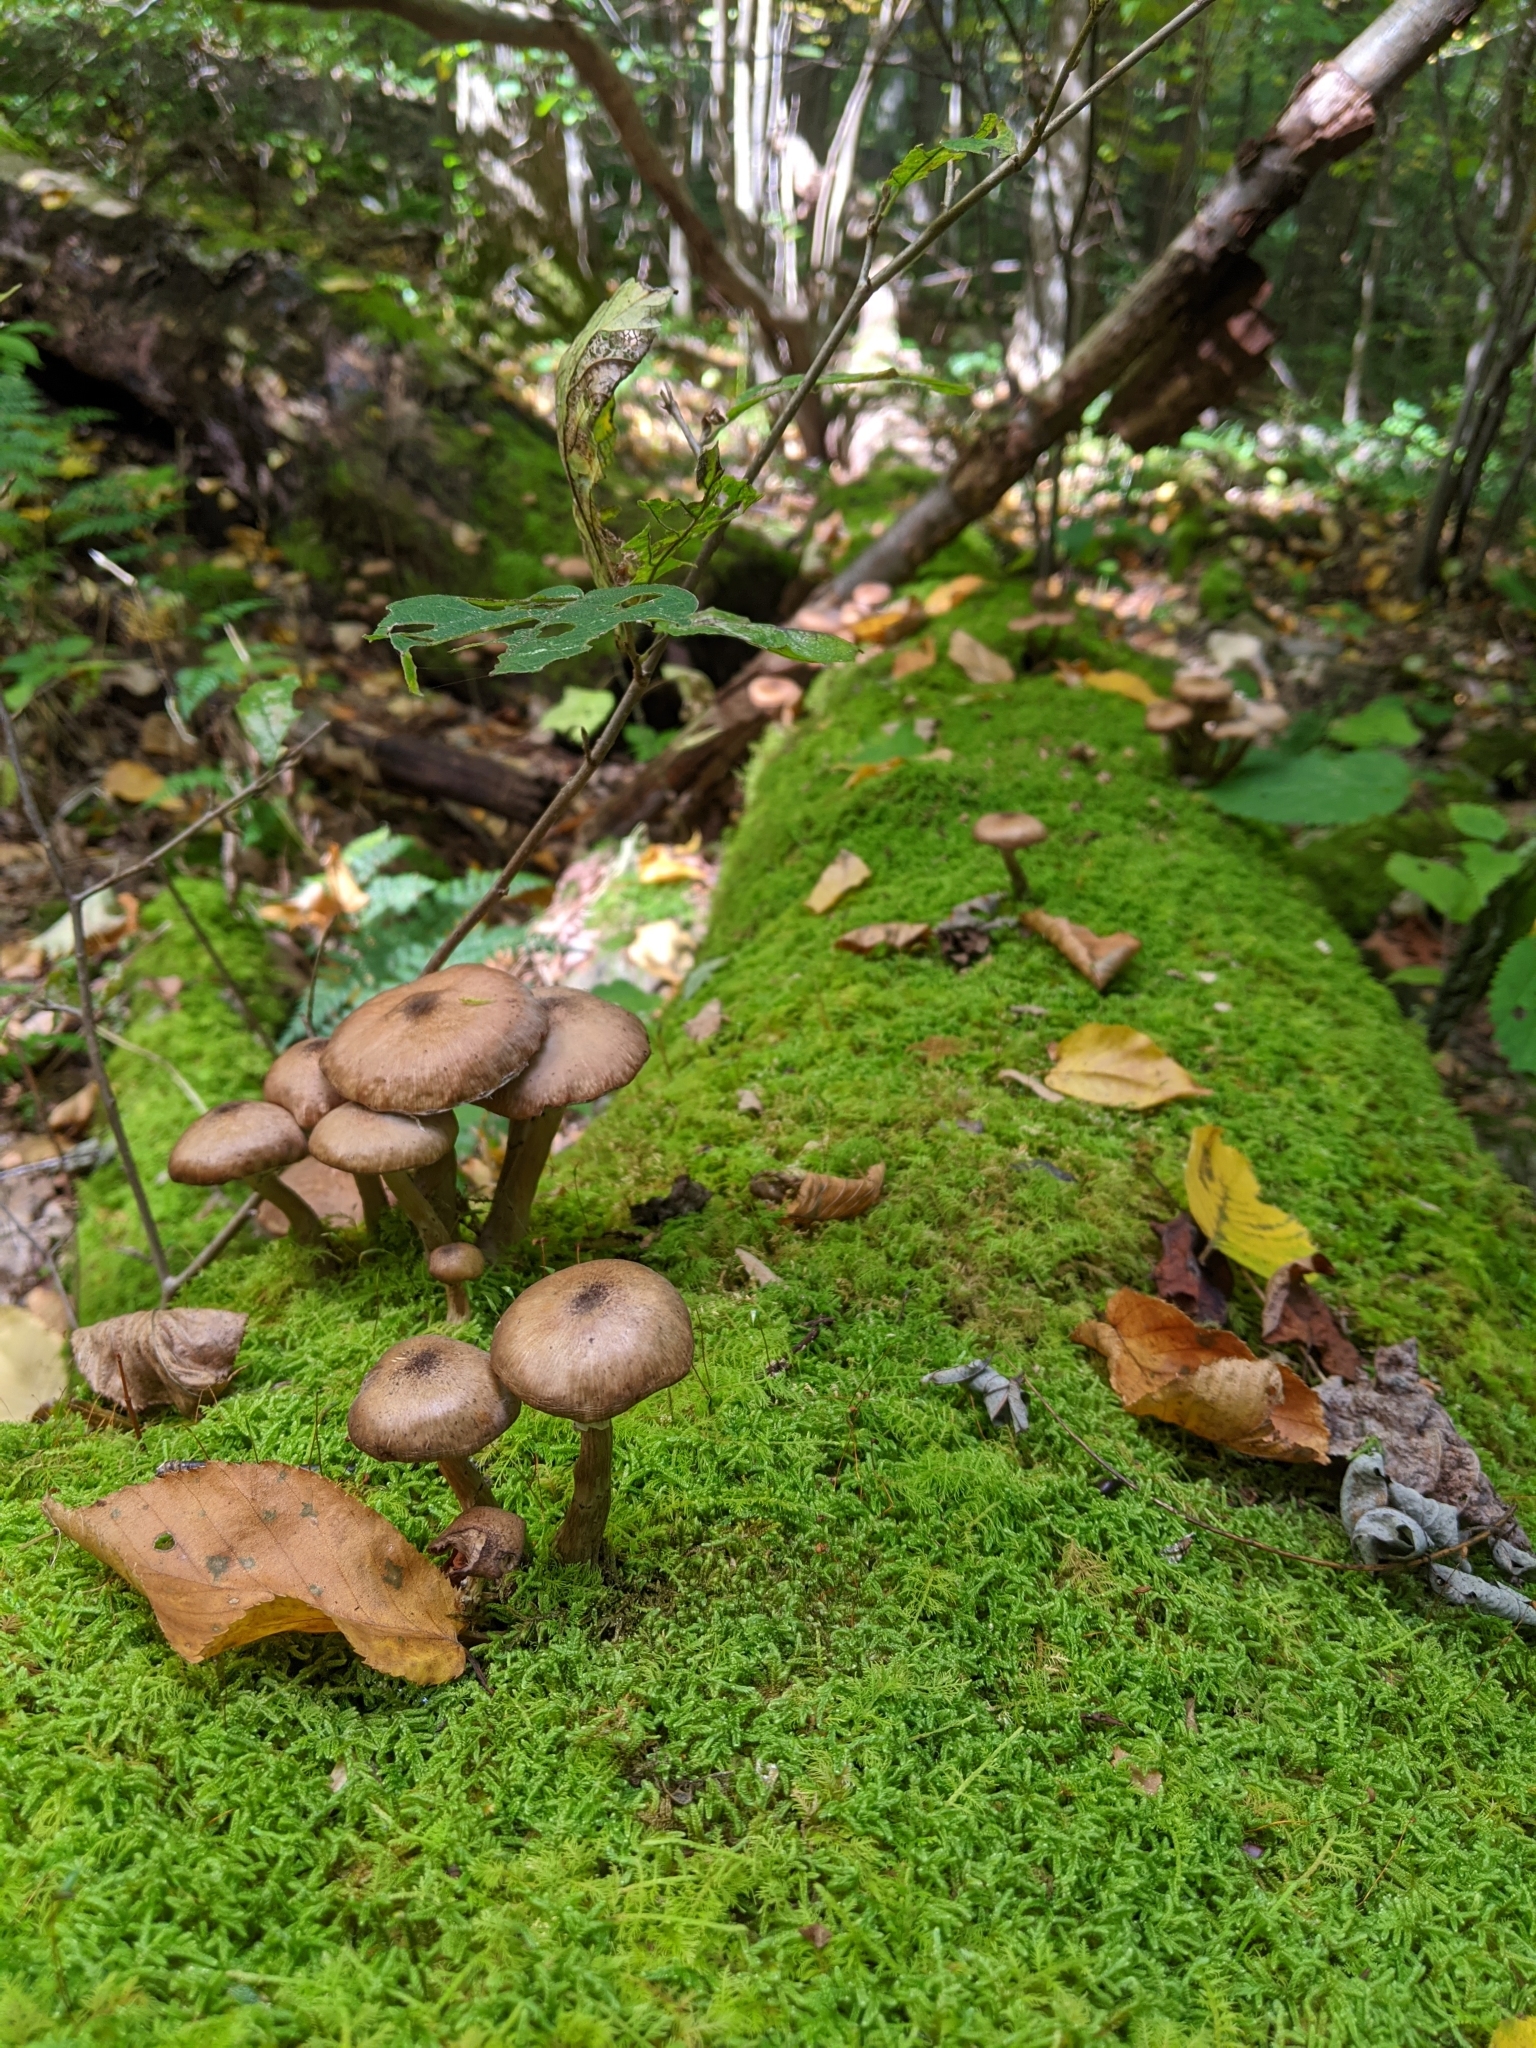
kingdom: Fungi
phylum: Basidiomycota
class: Agaricomycetes
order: Agaricales
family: Physalacriaceae
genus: Armillaria
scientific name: Armillaria mellea
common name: Honey fungus
